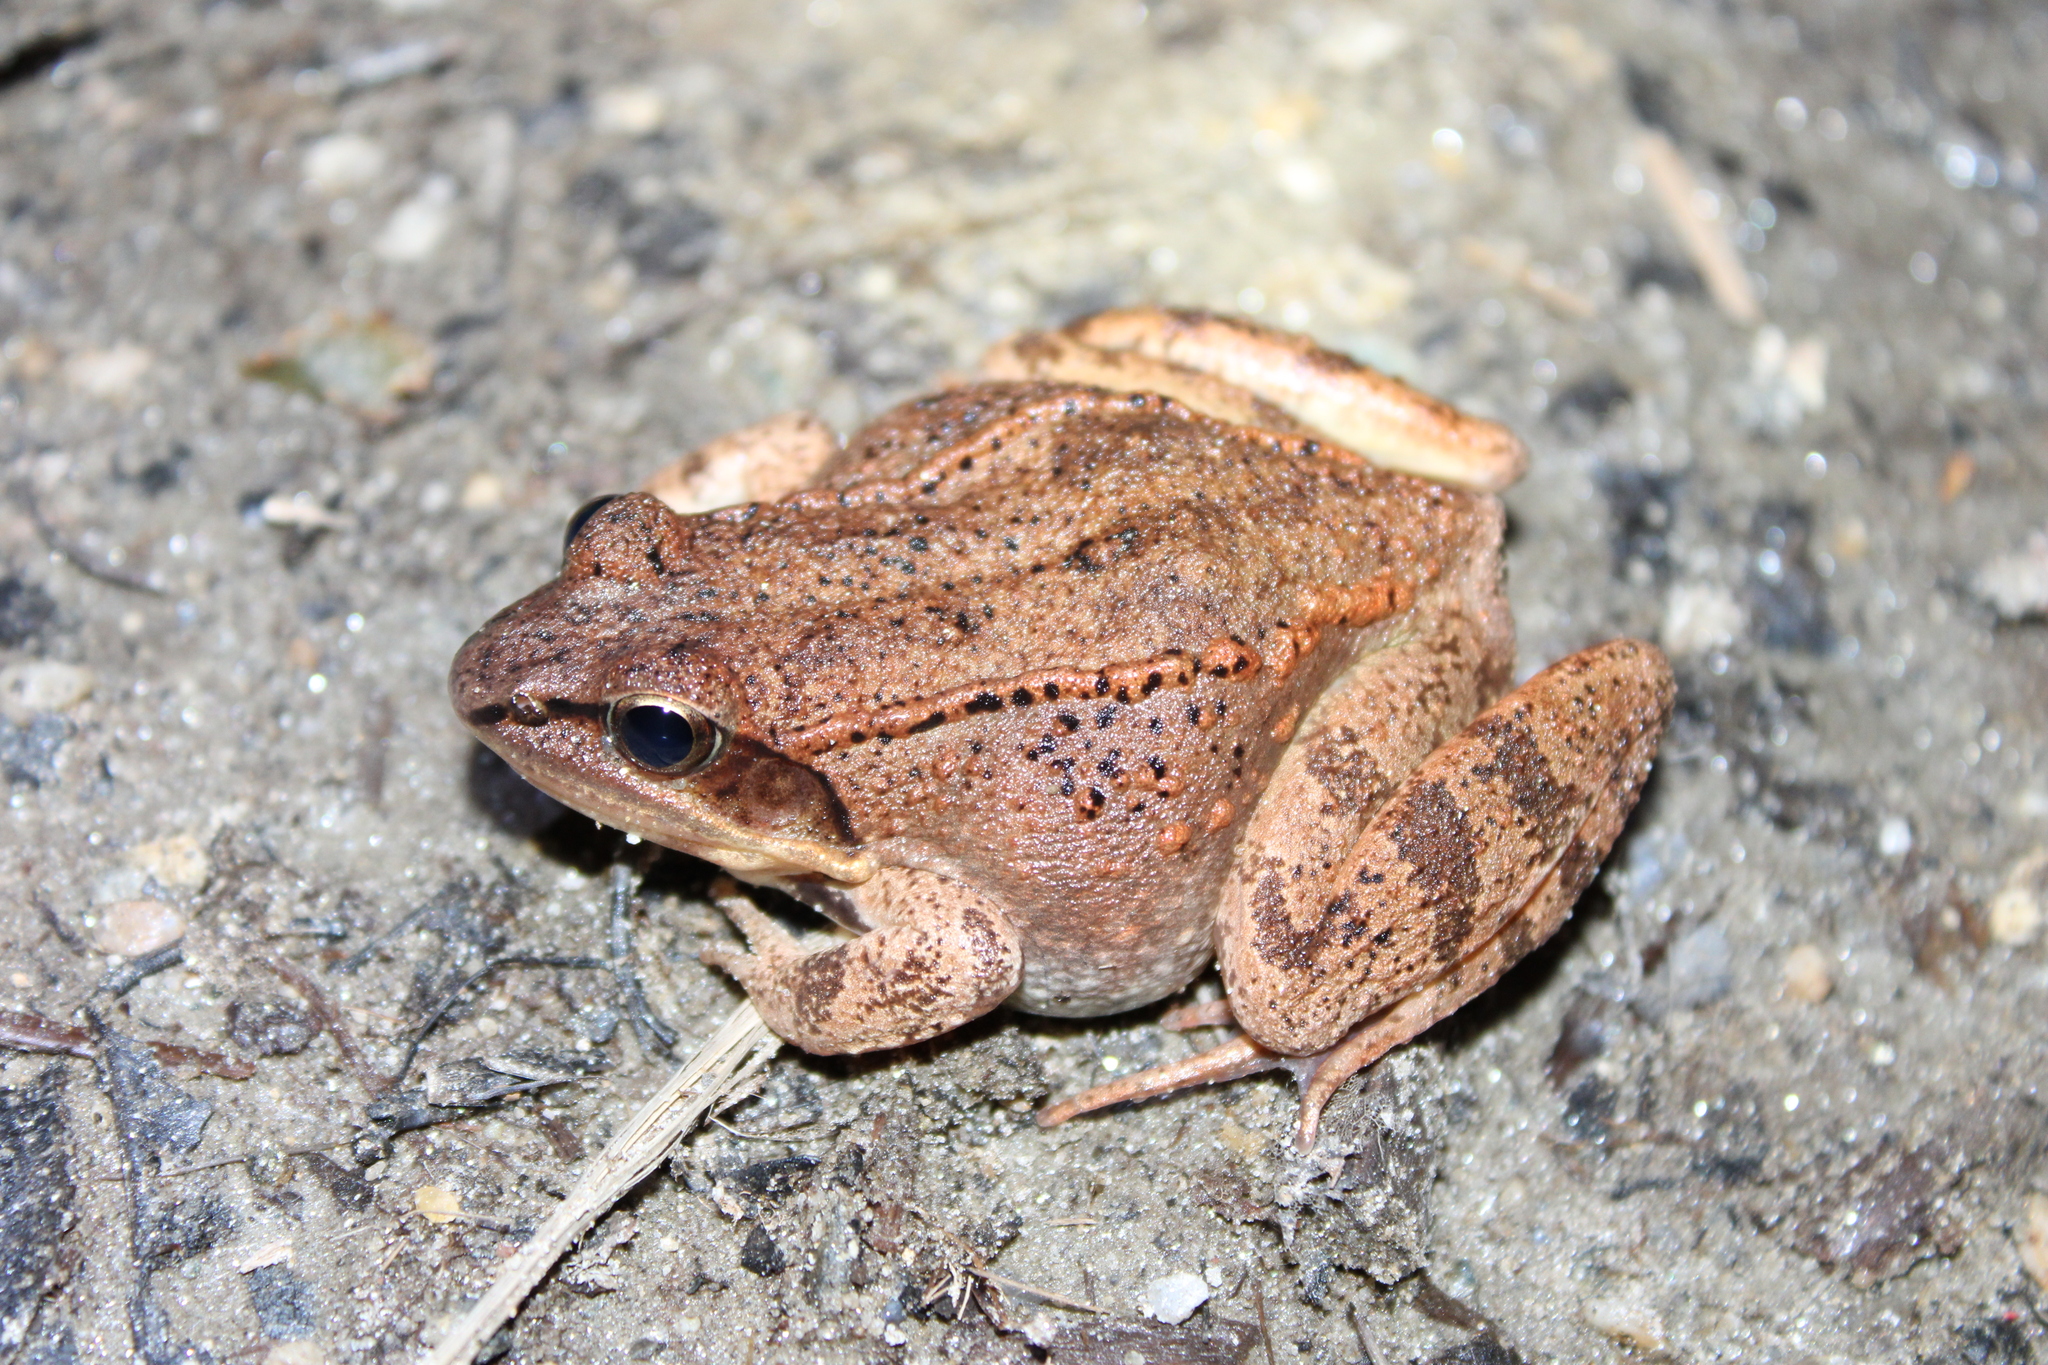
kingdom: Animalia
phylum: Chordata
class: Amphibia
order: Anura
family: Ranidae
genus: Lithobates
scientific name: Lithobates sylvaticus
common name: Wood frog
